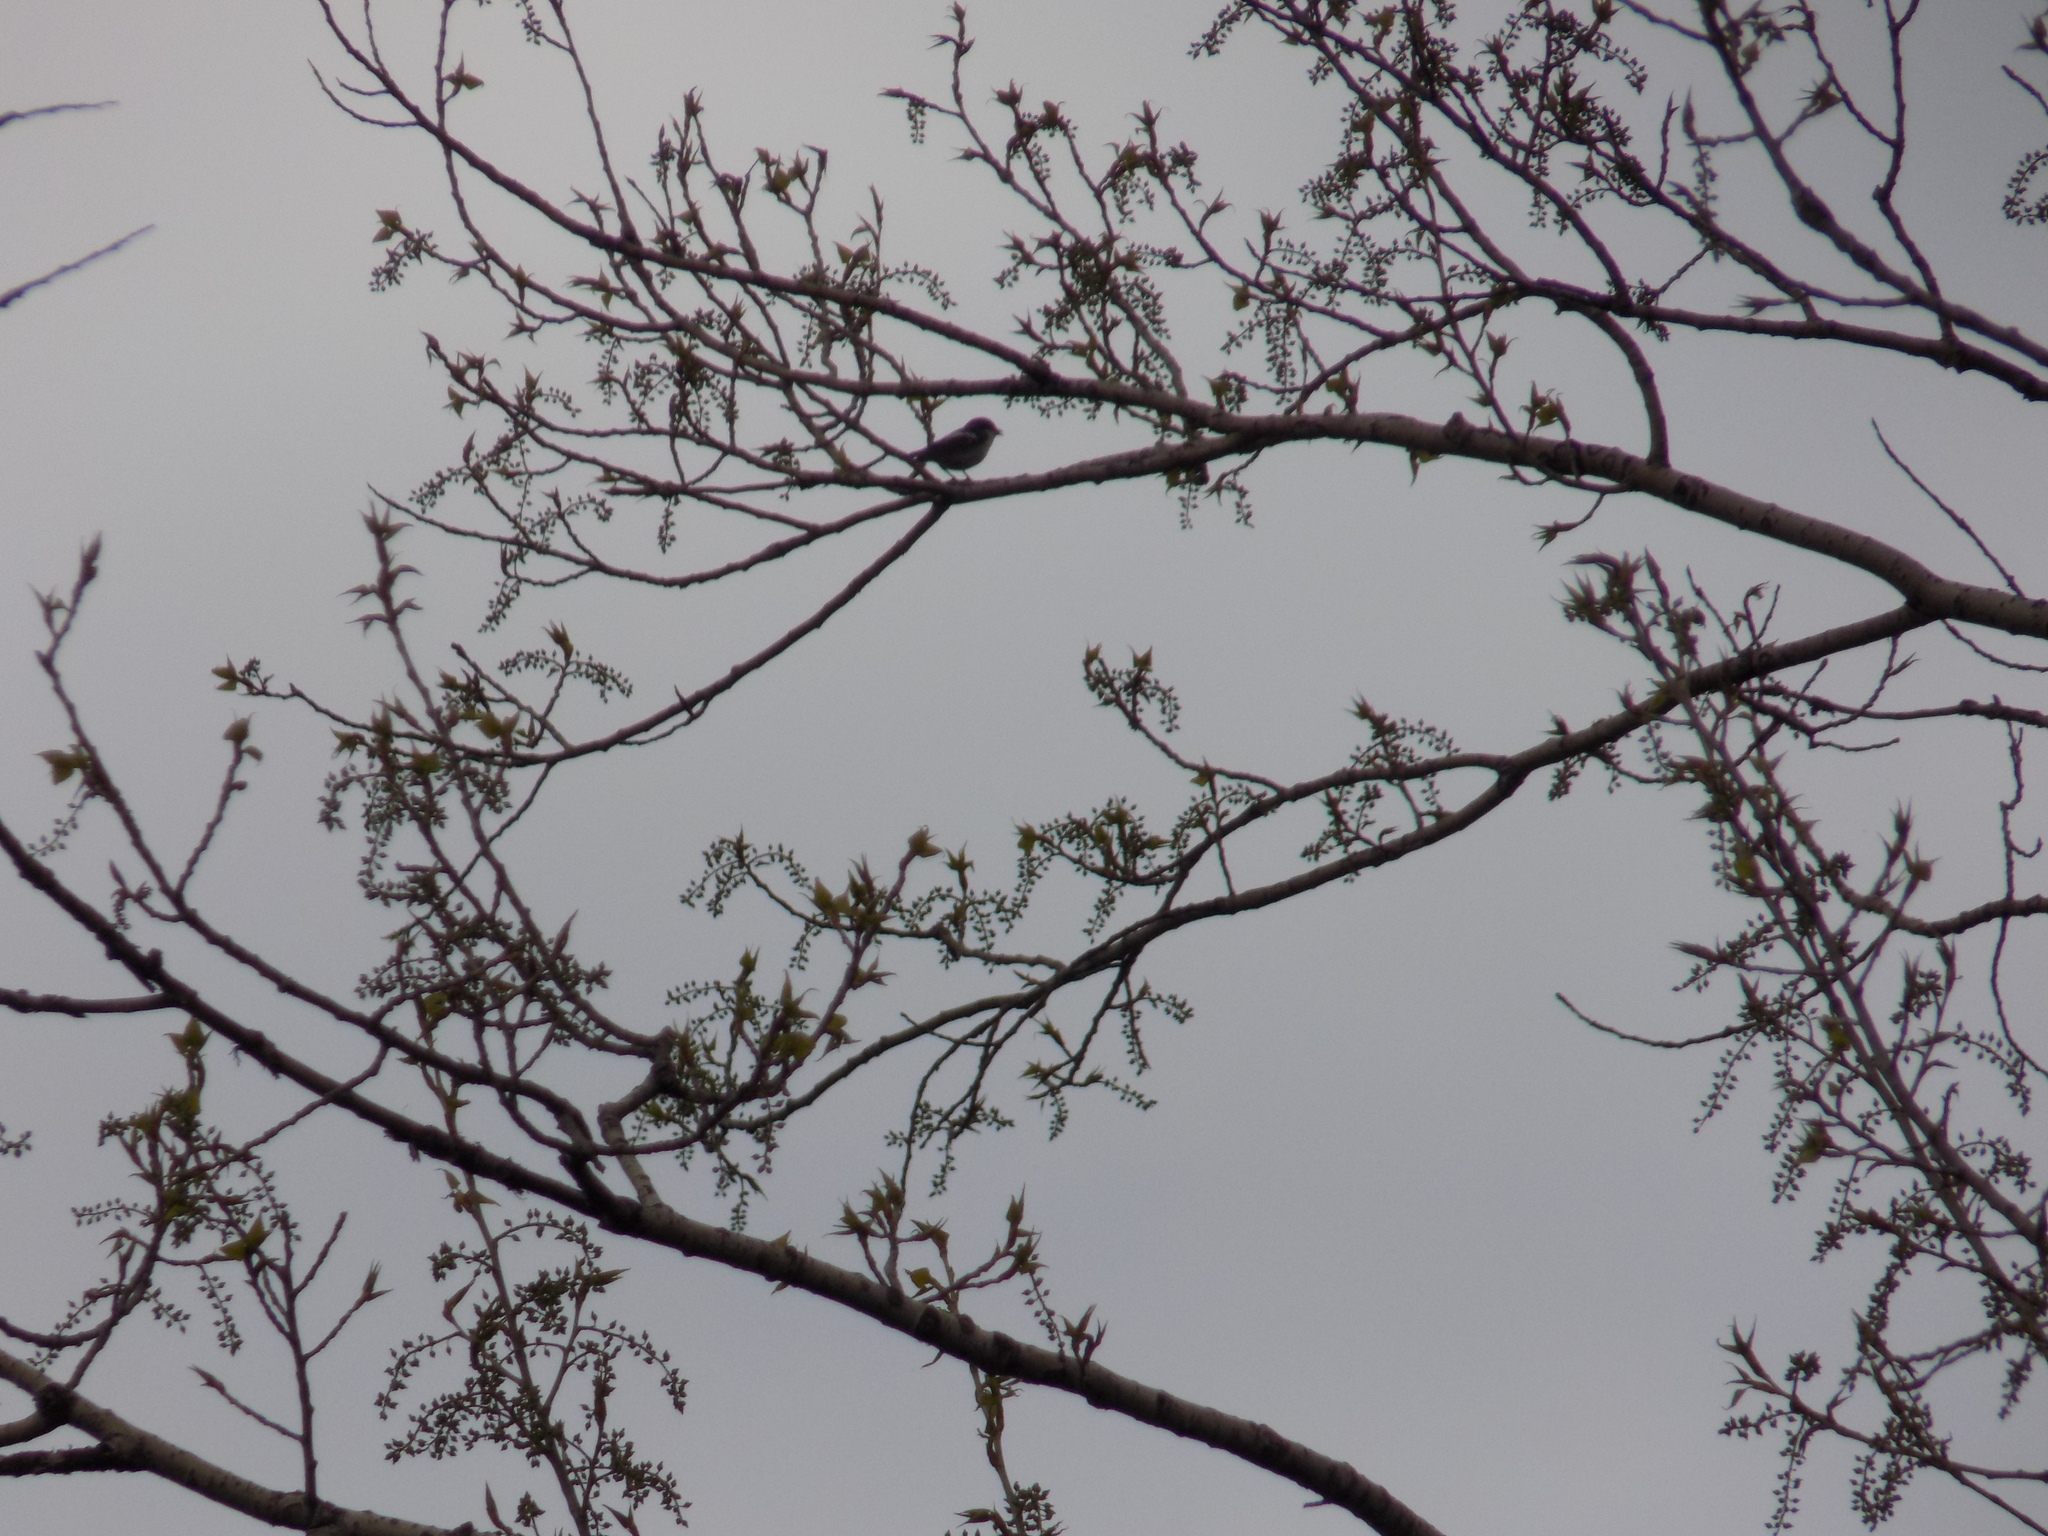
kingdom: Animalia
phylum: Chordata
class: Aves
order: Passeriformes
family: Muscicapidae
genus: Ficedula
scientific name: Ficedula hypoleuca
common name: European pied flycatcher
